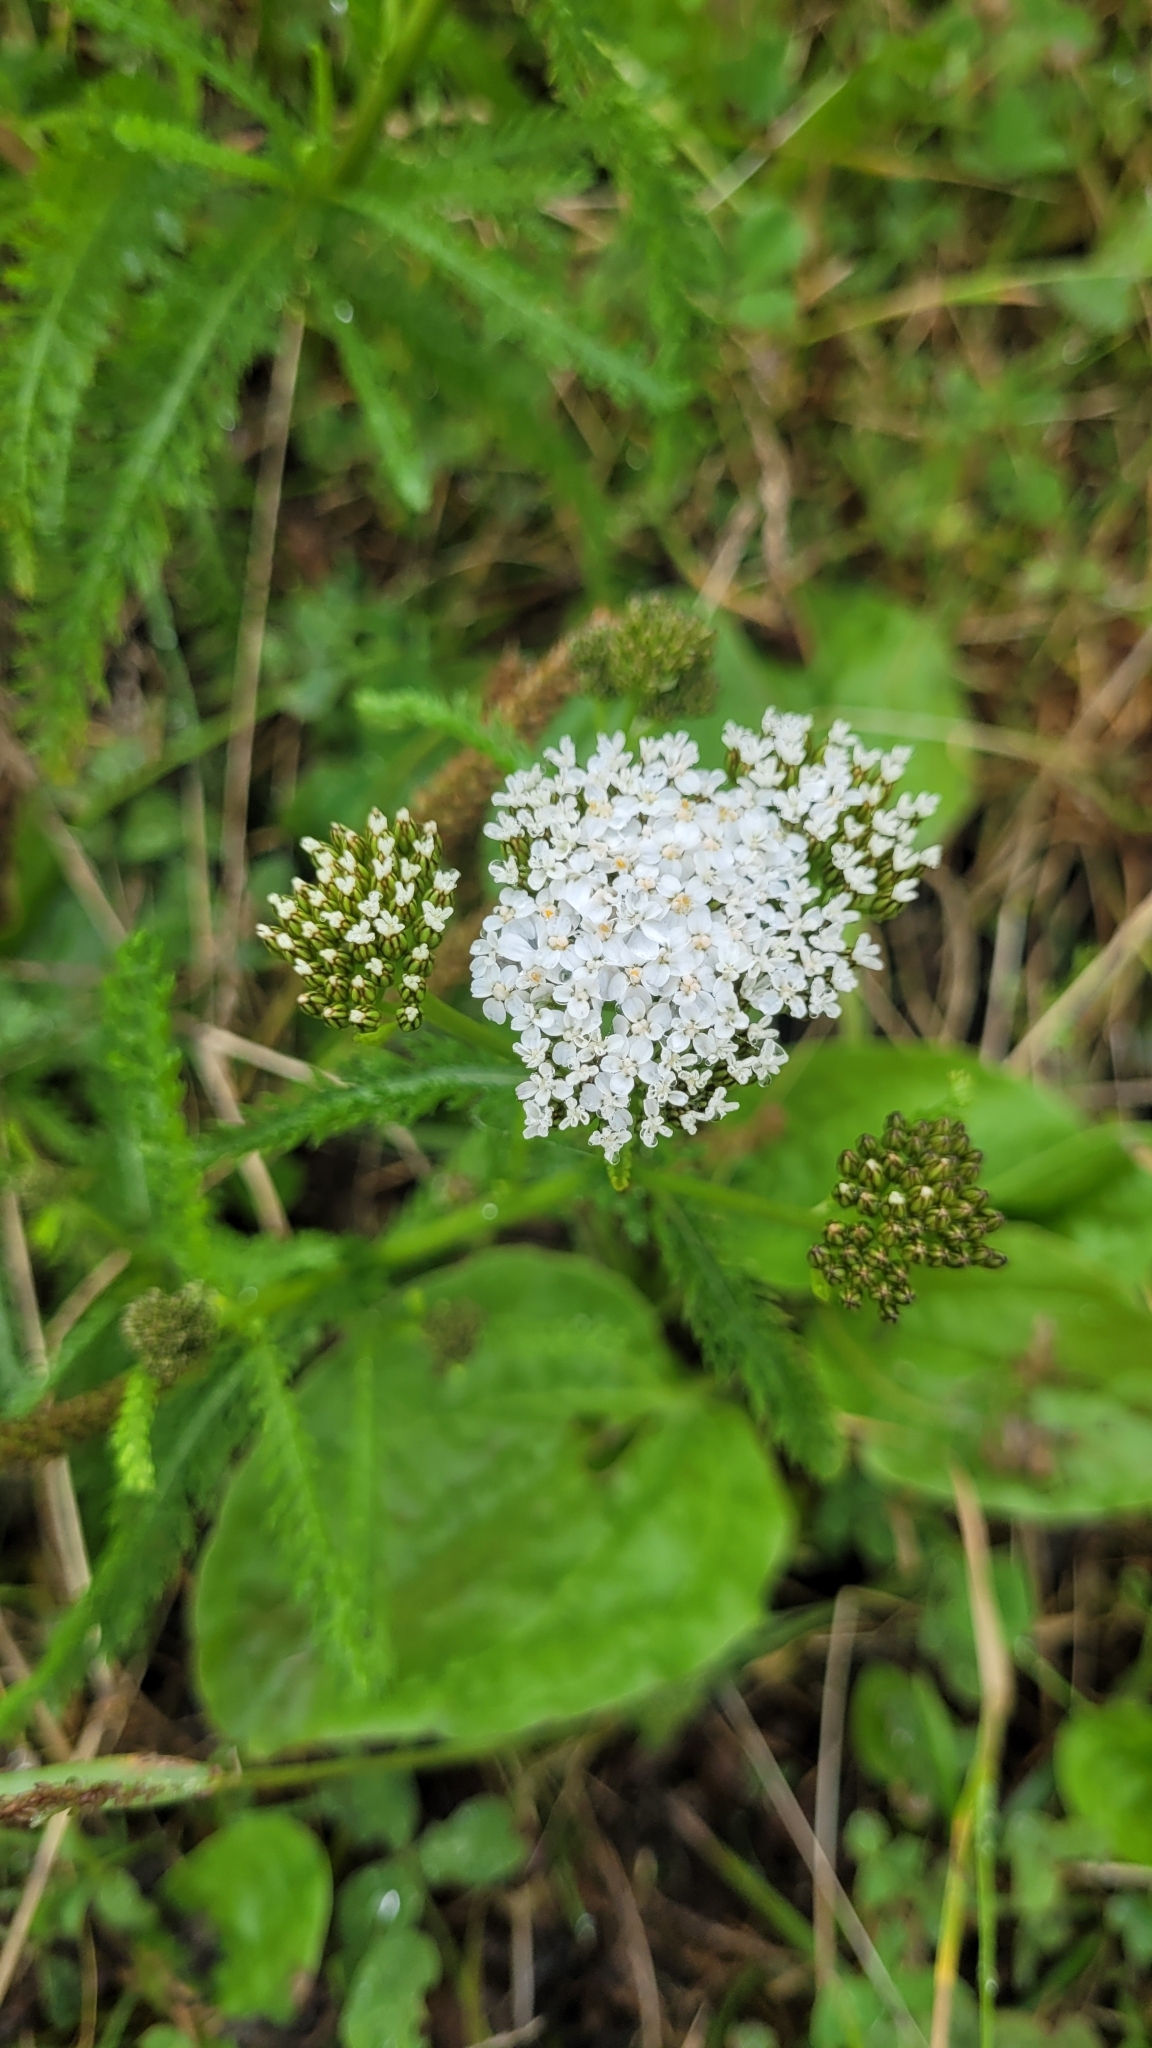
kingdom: Plantae
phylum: Tracheophyta
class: Magnoliopsida
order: Asterales
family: Asteraceae
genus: Achillea
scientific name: Achillea millefolium
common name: Yarrow
